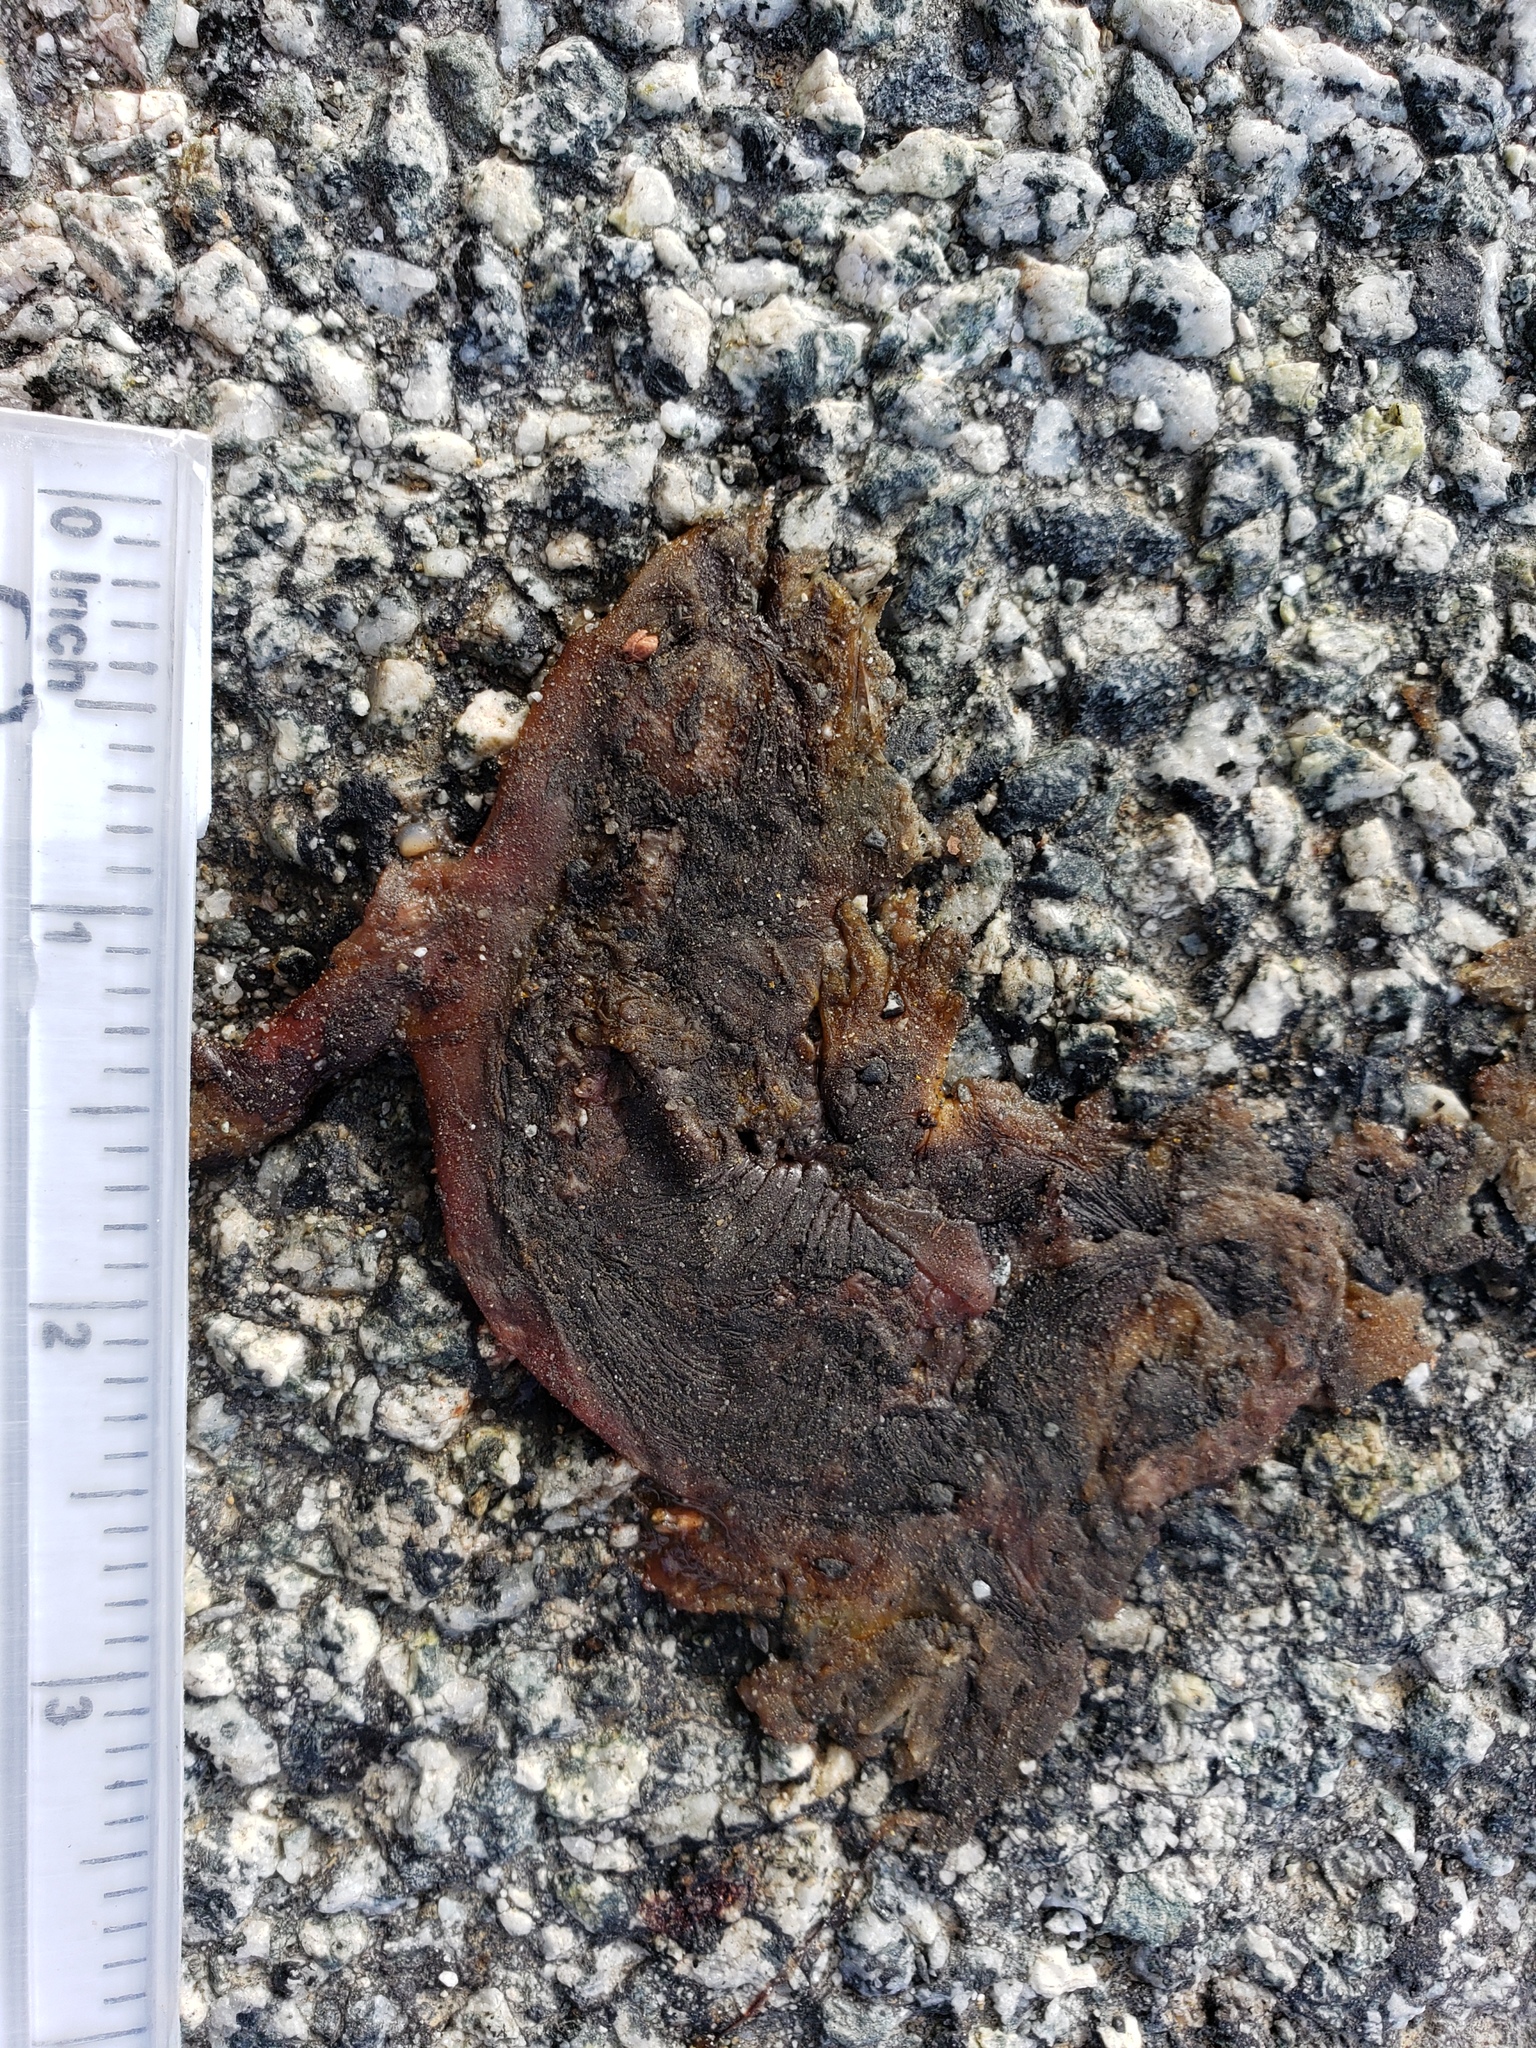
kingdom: Animalia
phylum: Chordata
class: Amphibia
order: Caudata
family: Salamandridae
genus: Taricha
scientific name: Taricha
